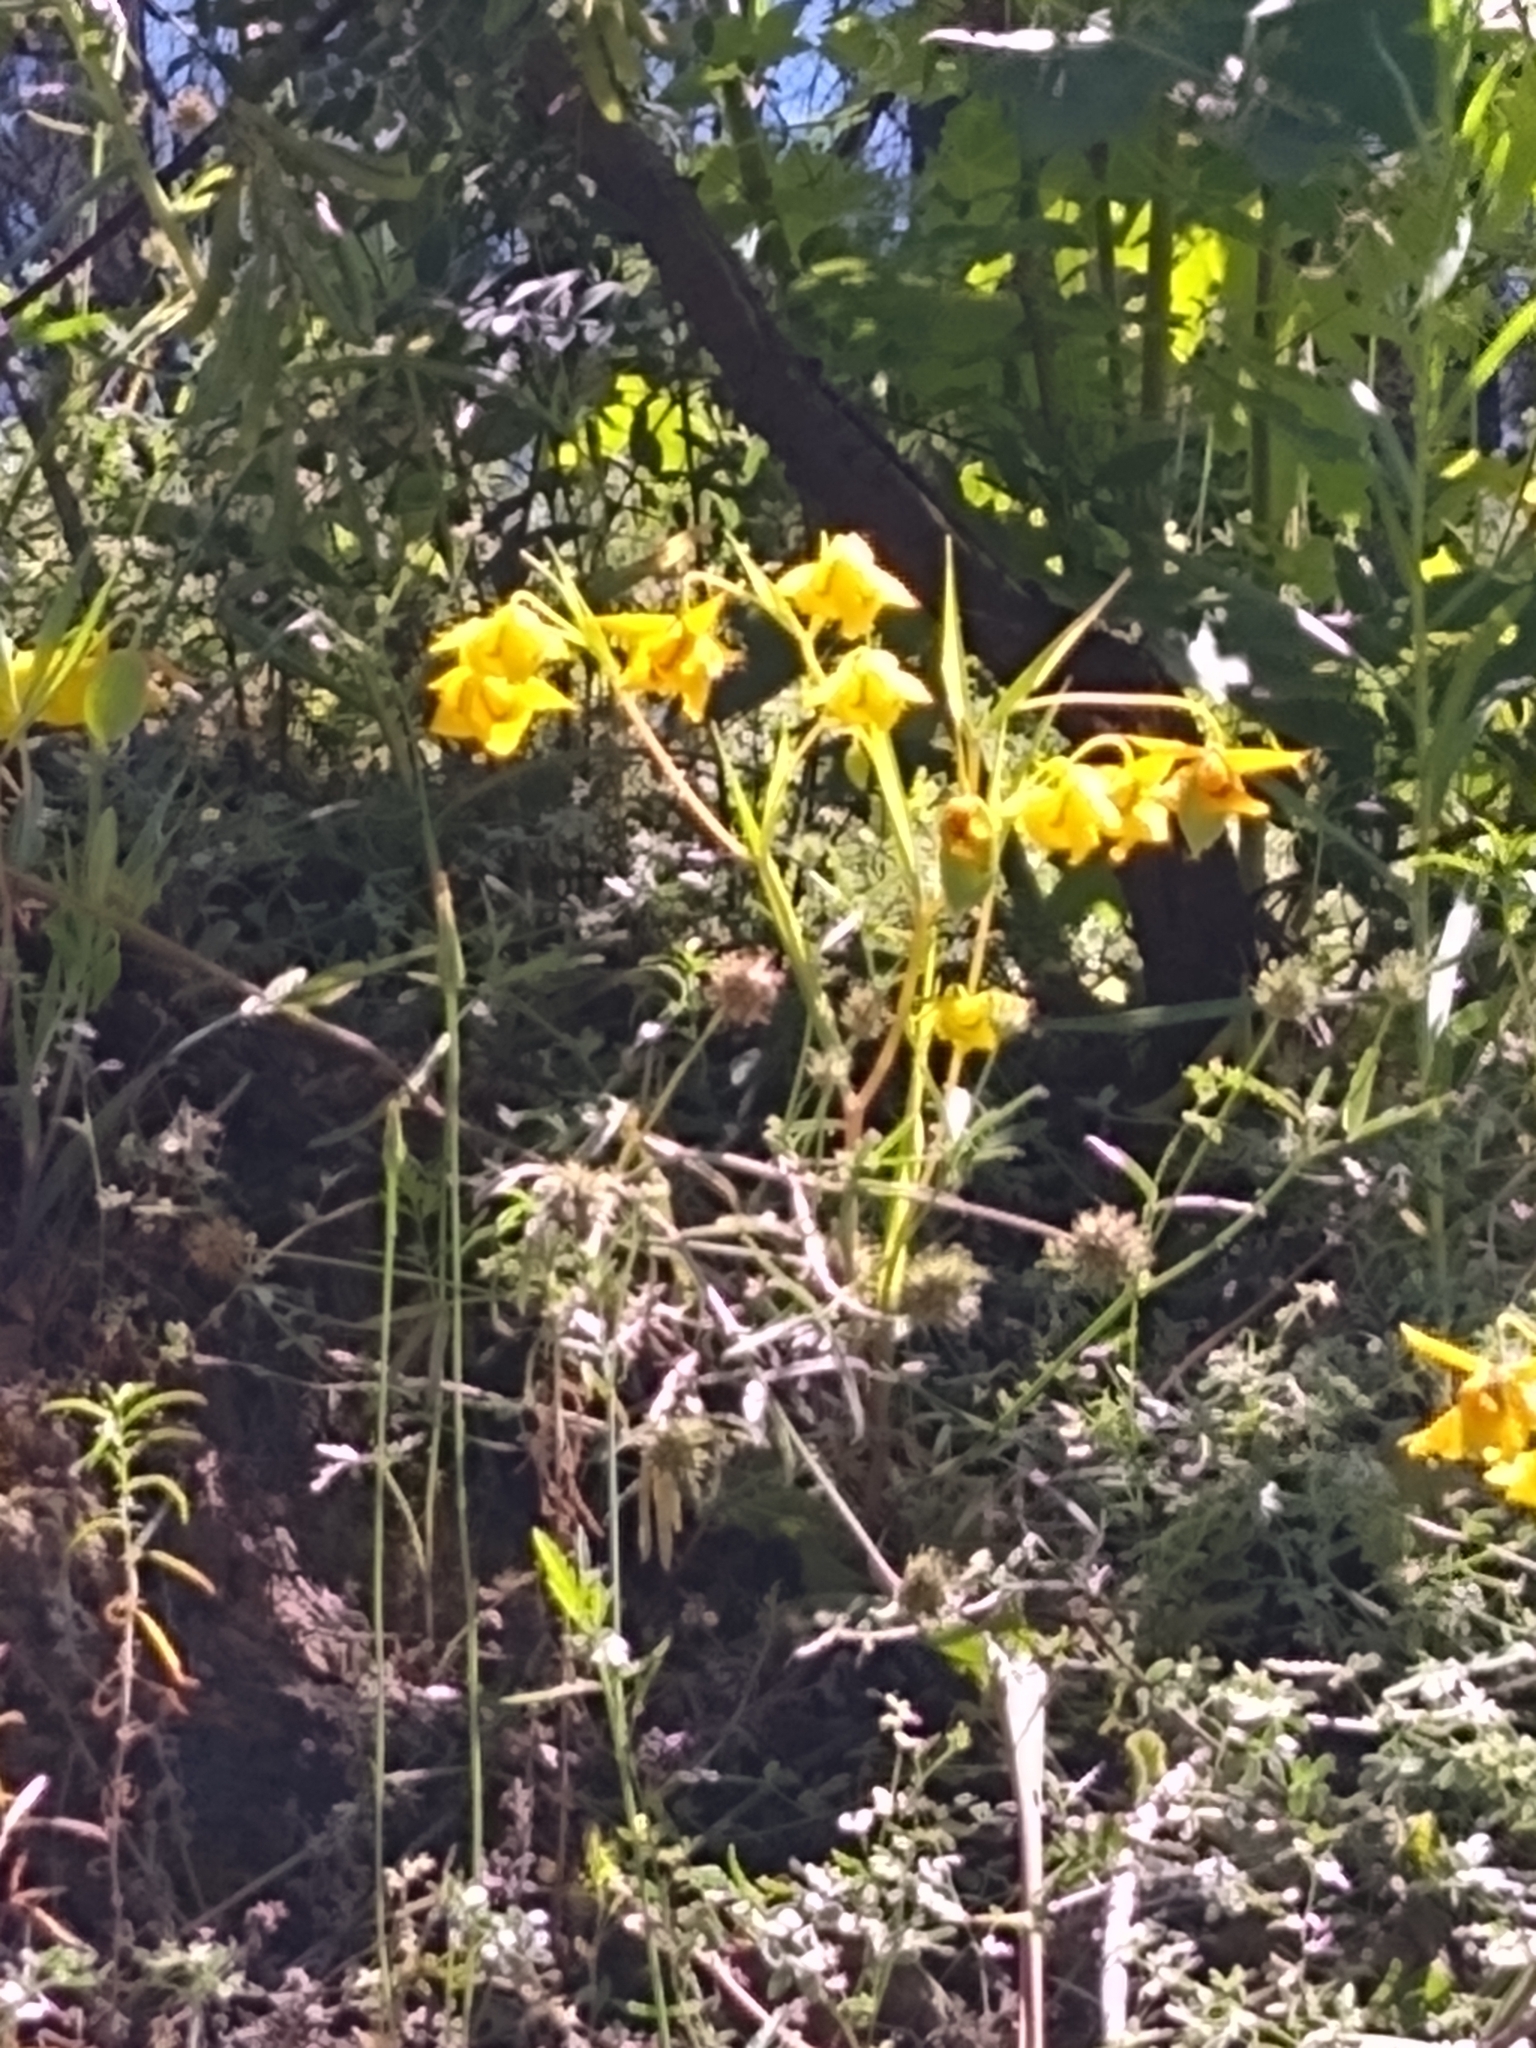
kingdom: Plantae
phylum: Tracheophyta
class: Liliopsida
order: Liliales
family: Liliaceae
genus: Calochortus
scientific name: Calochortus amabilis
